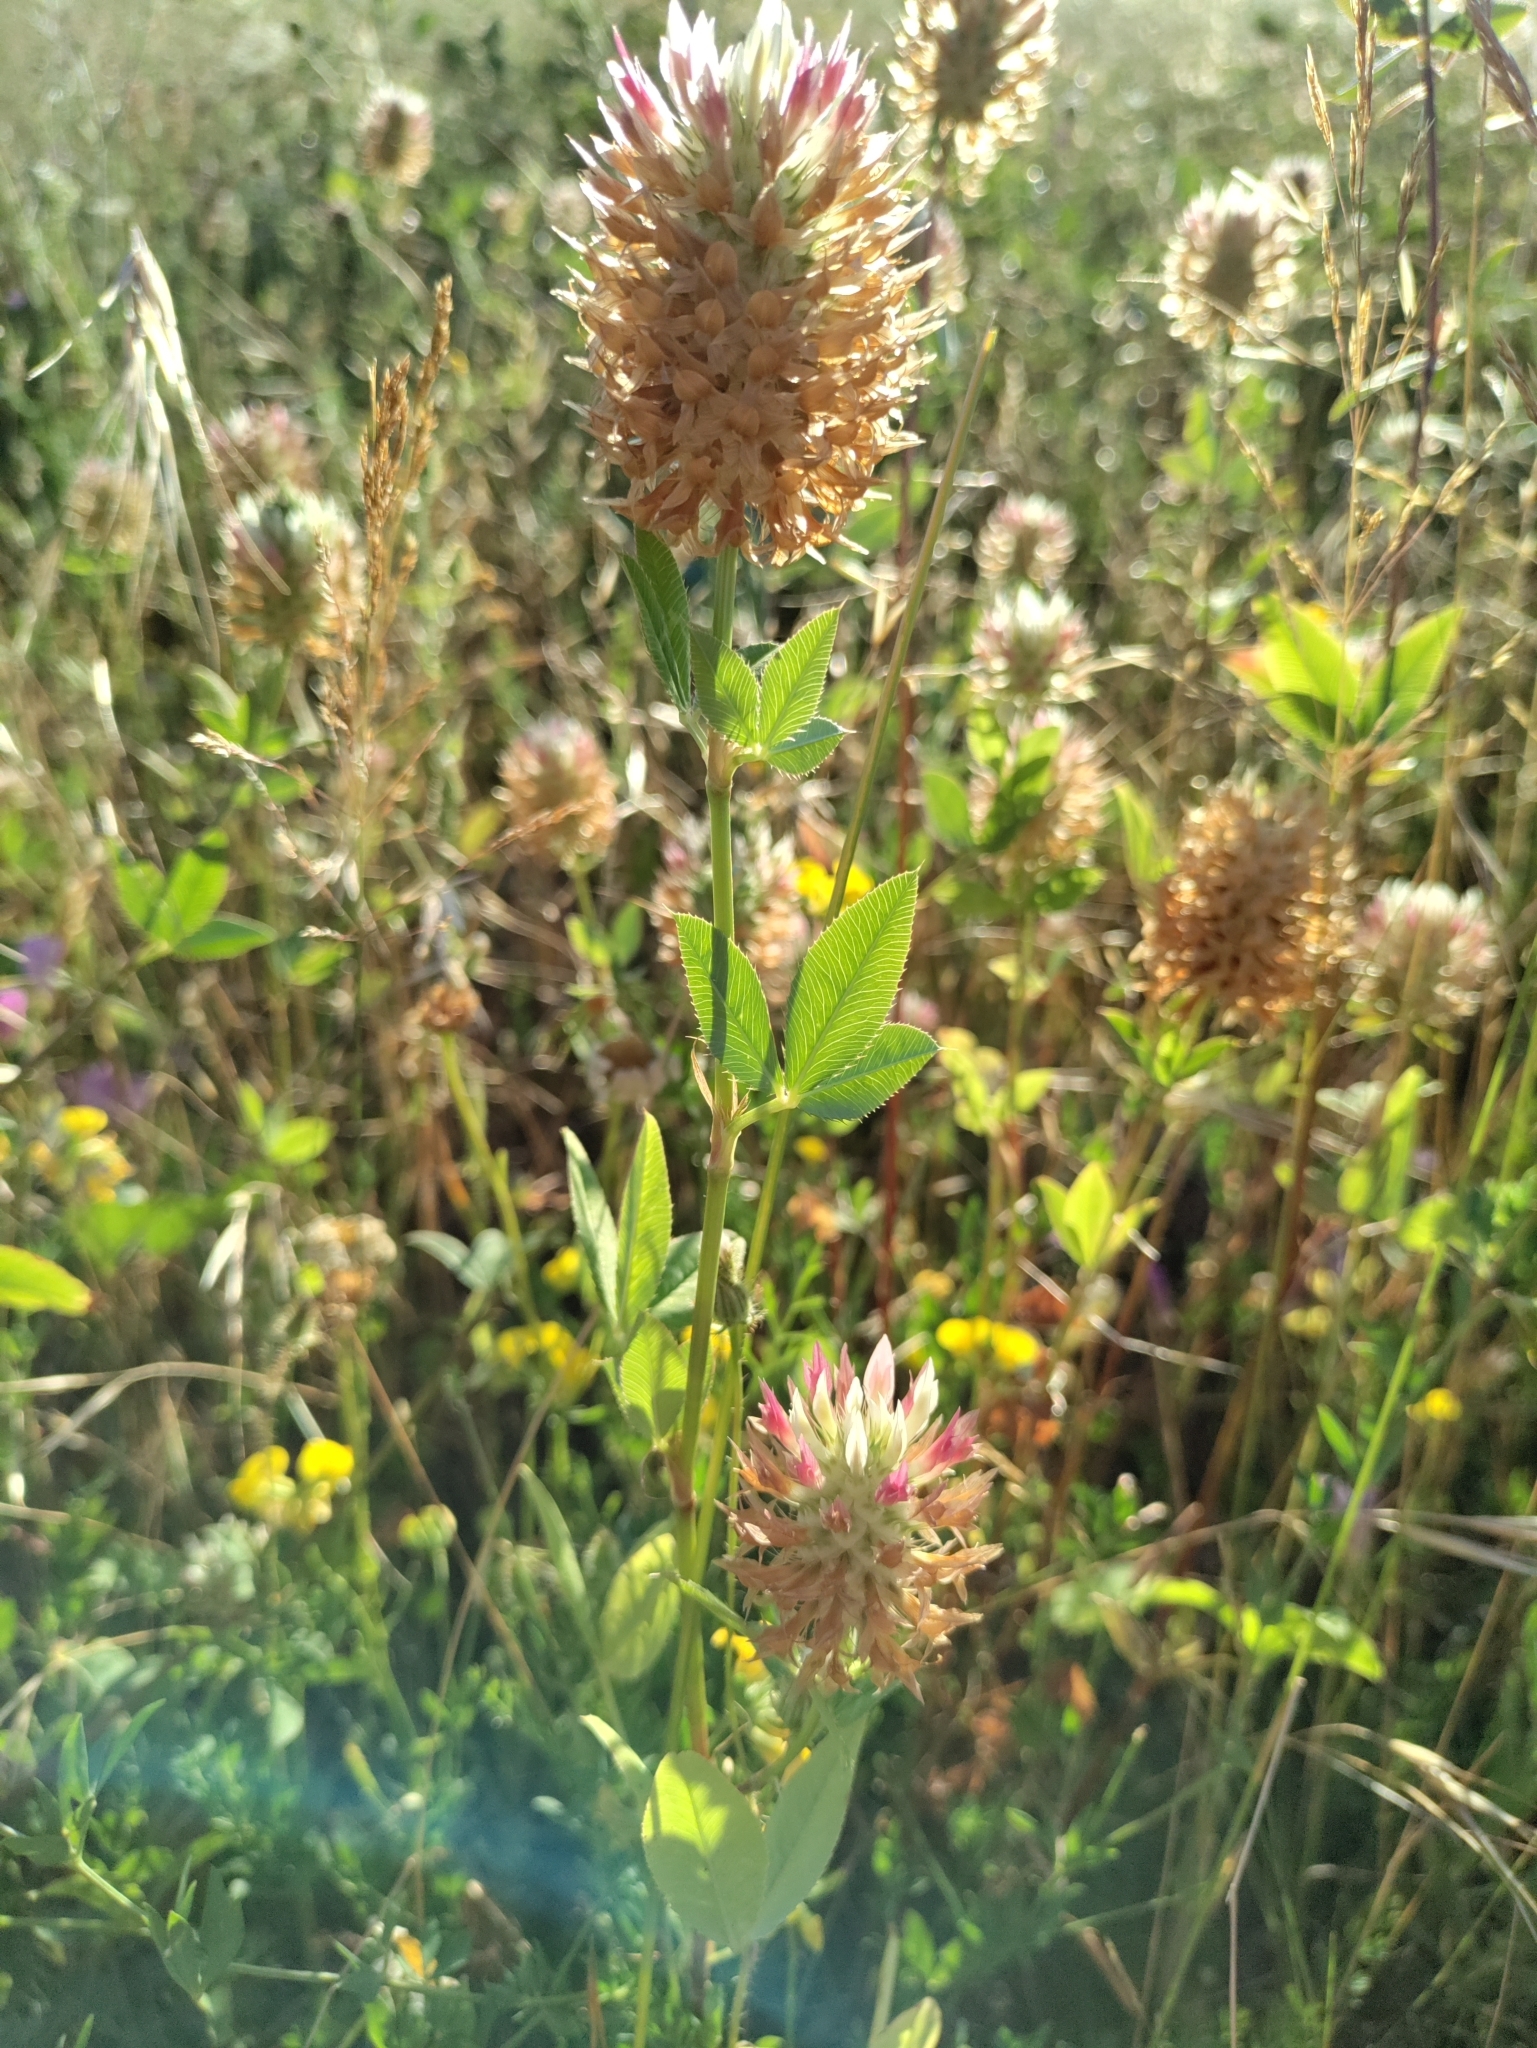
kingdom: Plantae
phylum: Tracheophyta
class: Magnoliopsida
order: Fabales
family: Fabaceae
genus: Trifolium
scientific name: Trifolium vesiculosum
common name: Arrowleaf clover
